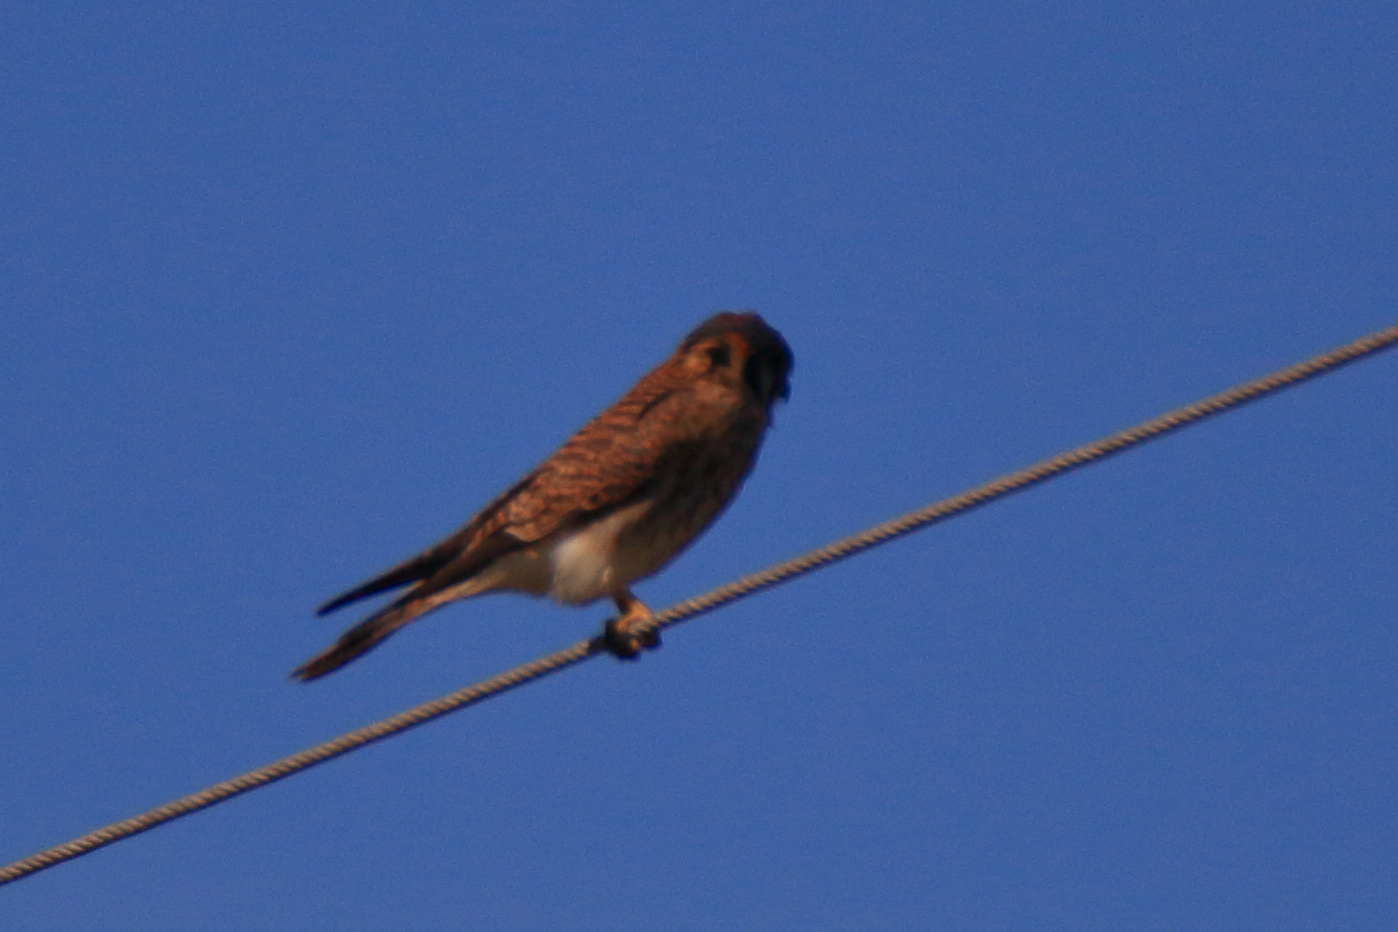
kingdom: Animalia
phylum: Chordata
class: Aves
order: Falconiformes
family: Falconidae
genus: Falco
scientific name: Falco sparverius
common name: American kestrel
